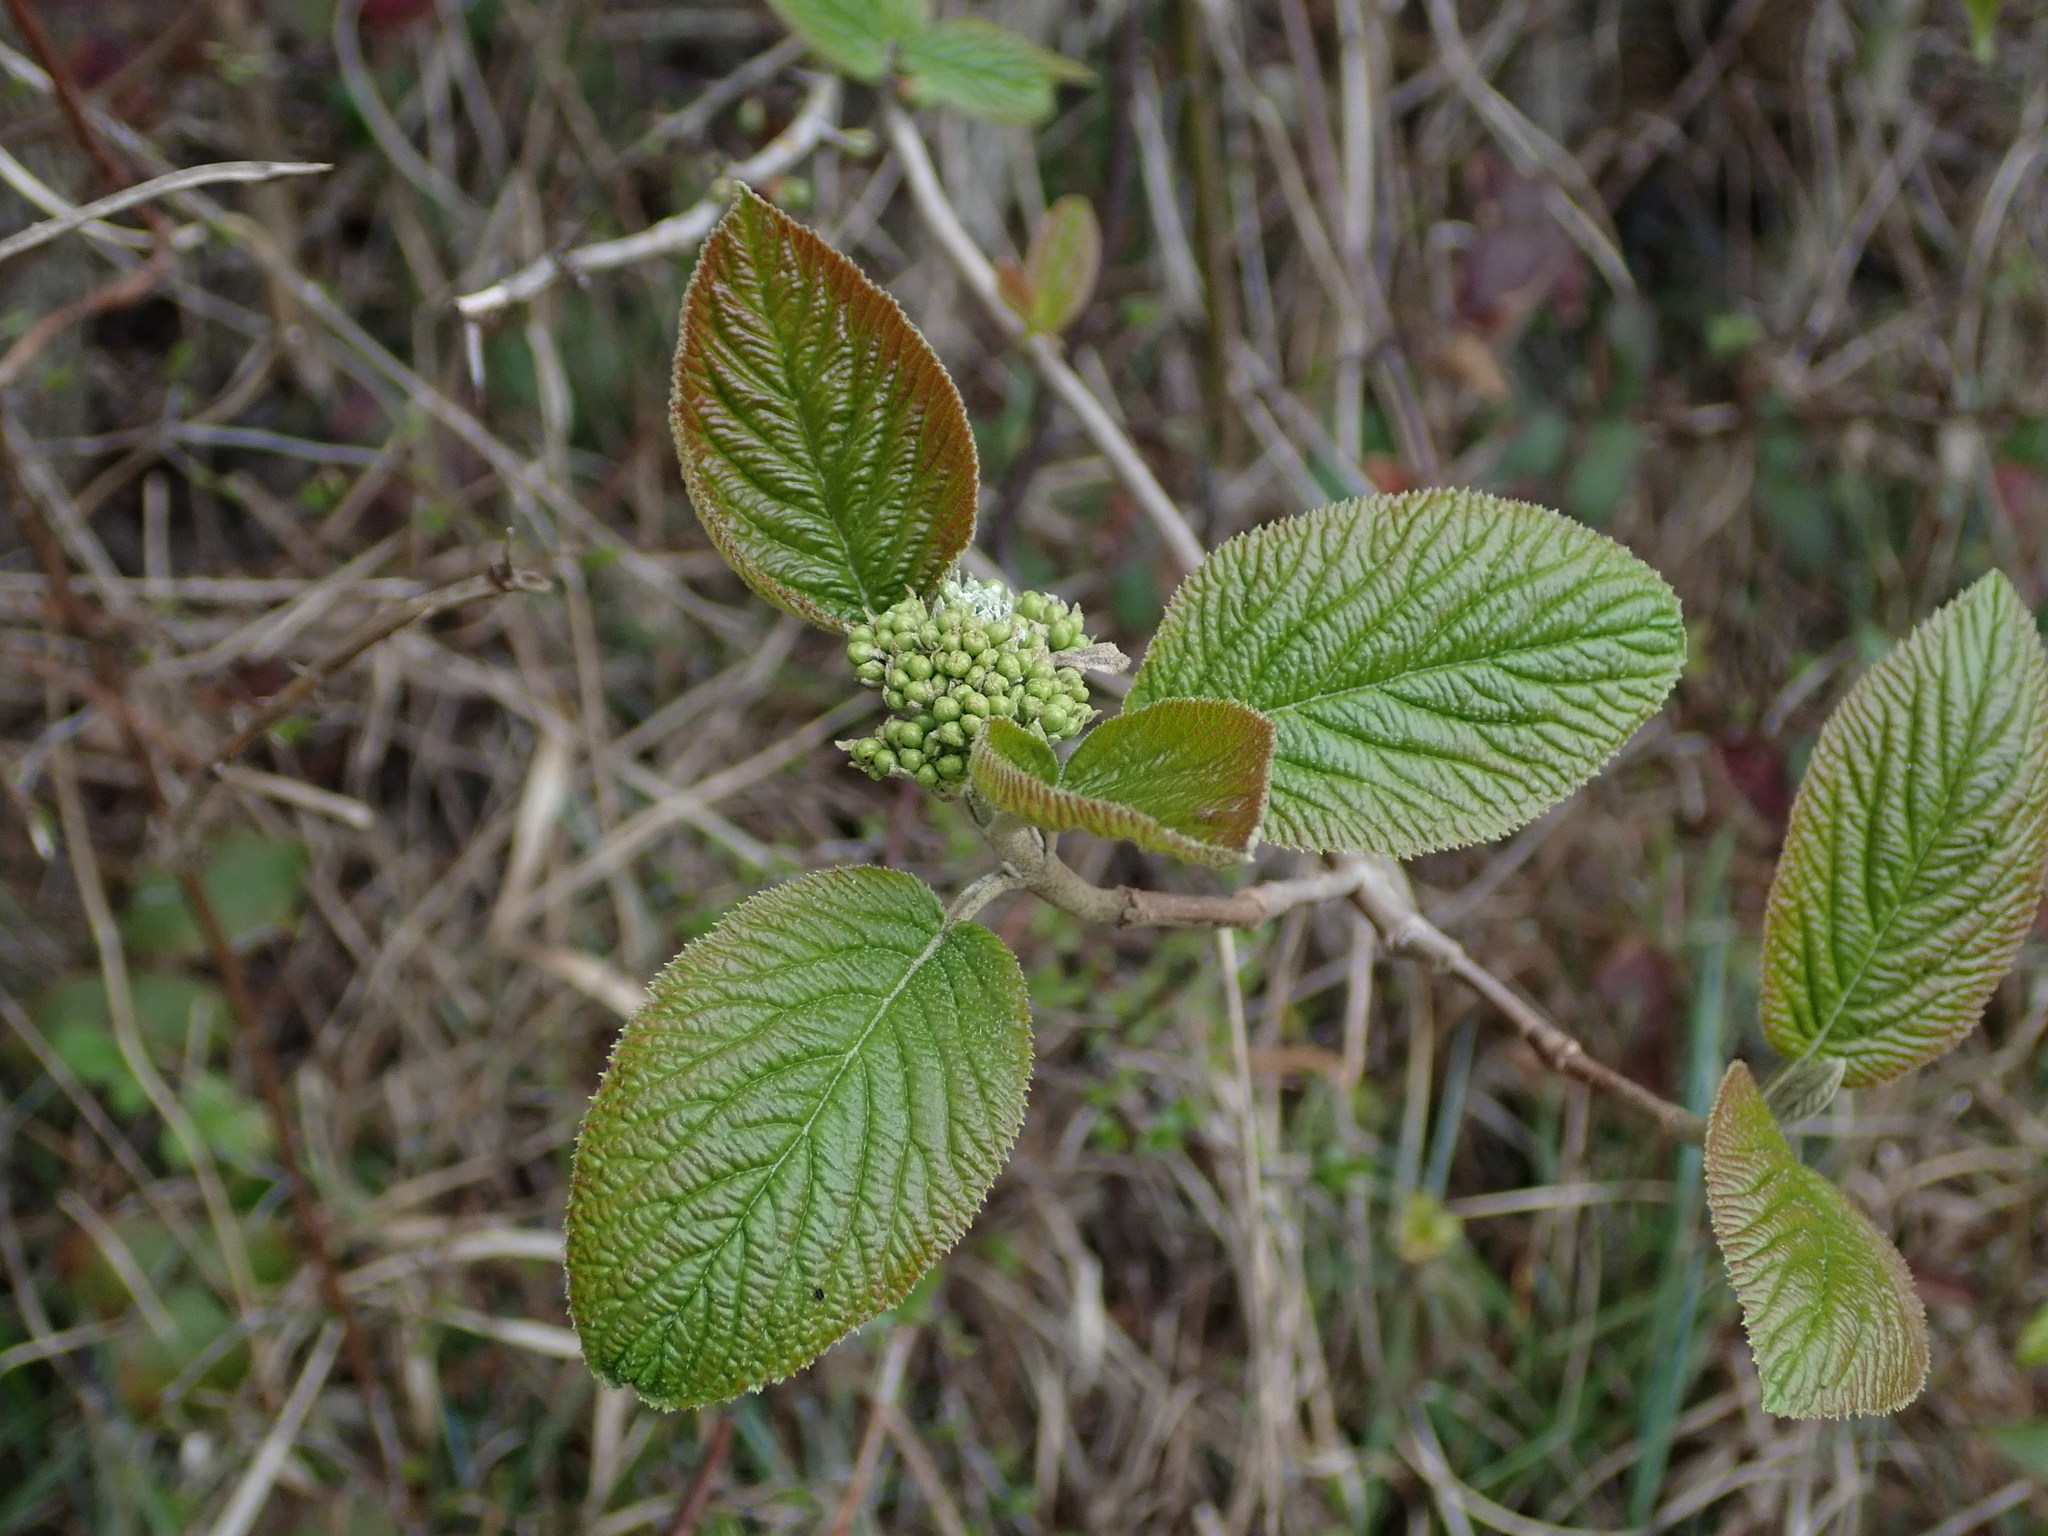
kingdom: Plantae
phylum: Tracheophyta
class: Magnoliopsida
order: Dipsacales
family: Viburnaceae
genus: Viburnum
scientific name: Viburnum lantana
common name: Wayfaring tree
